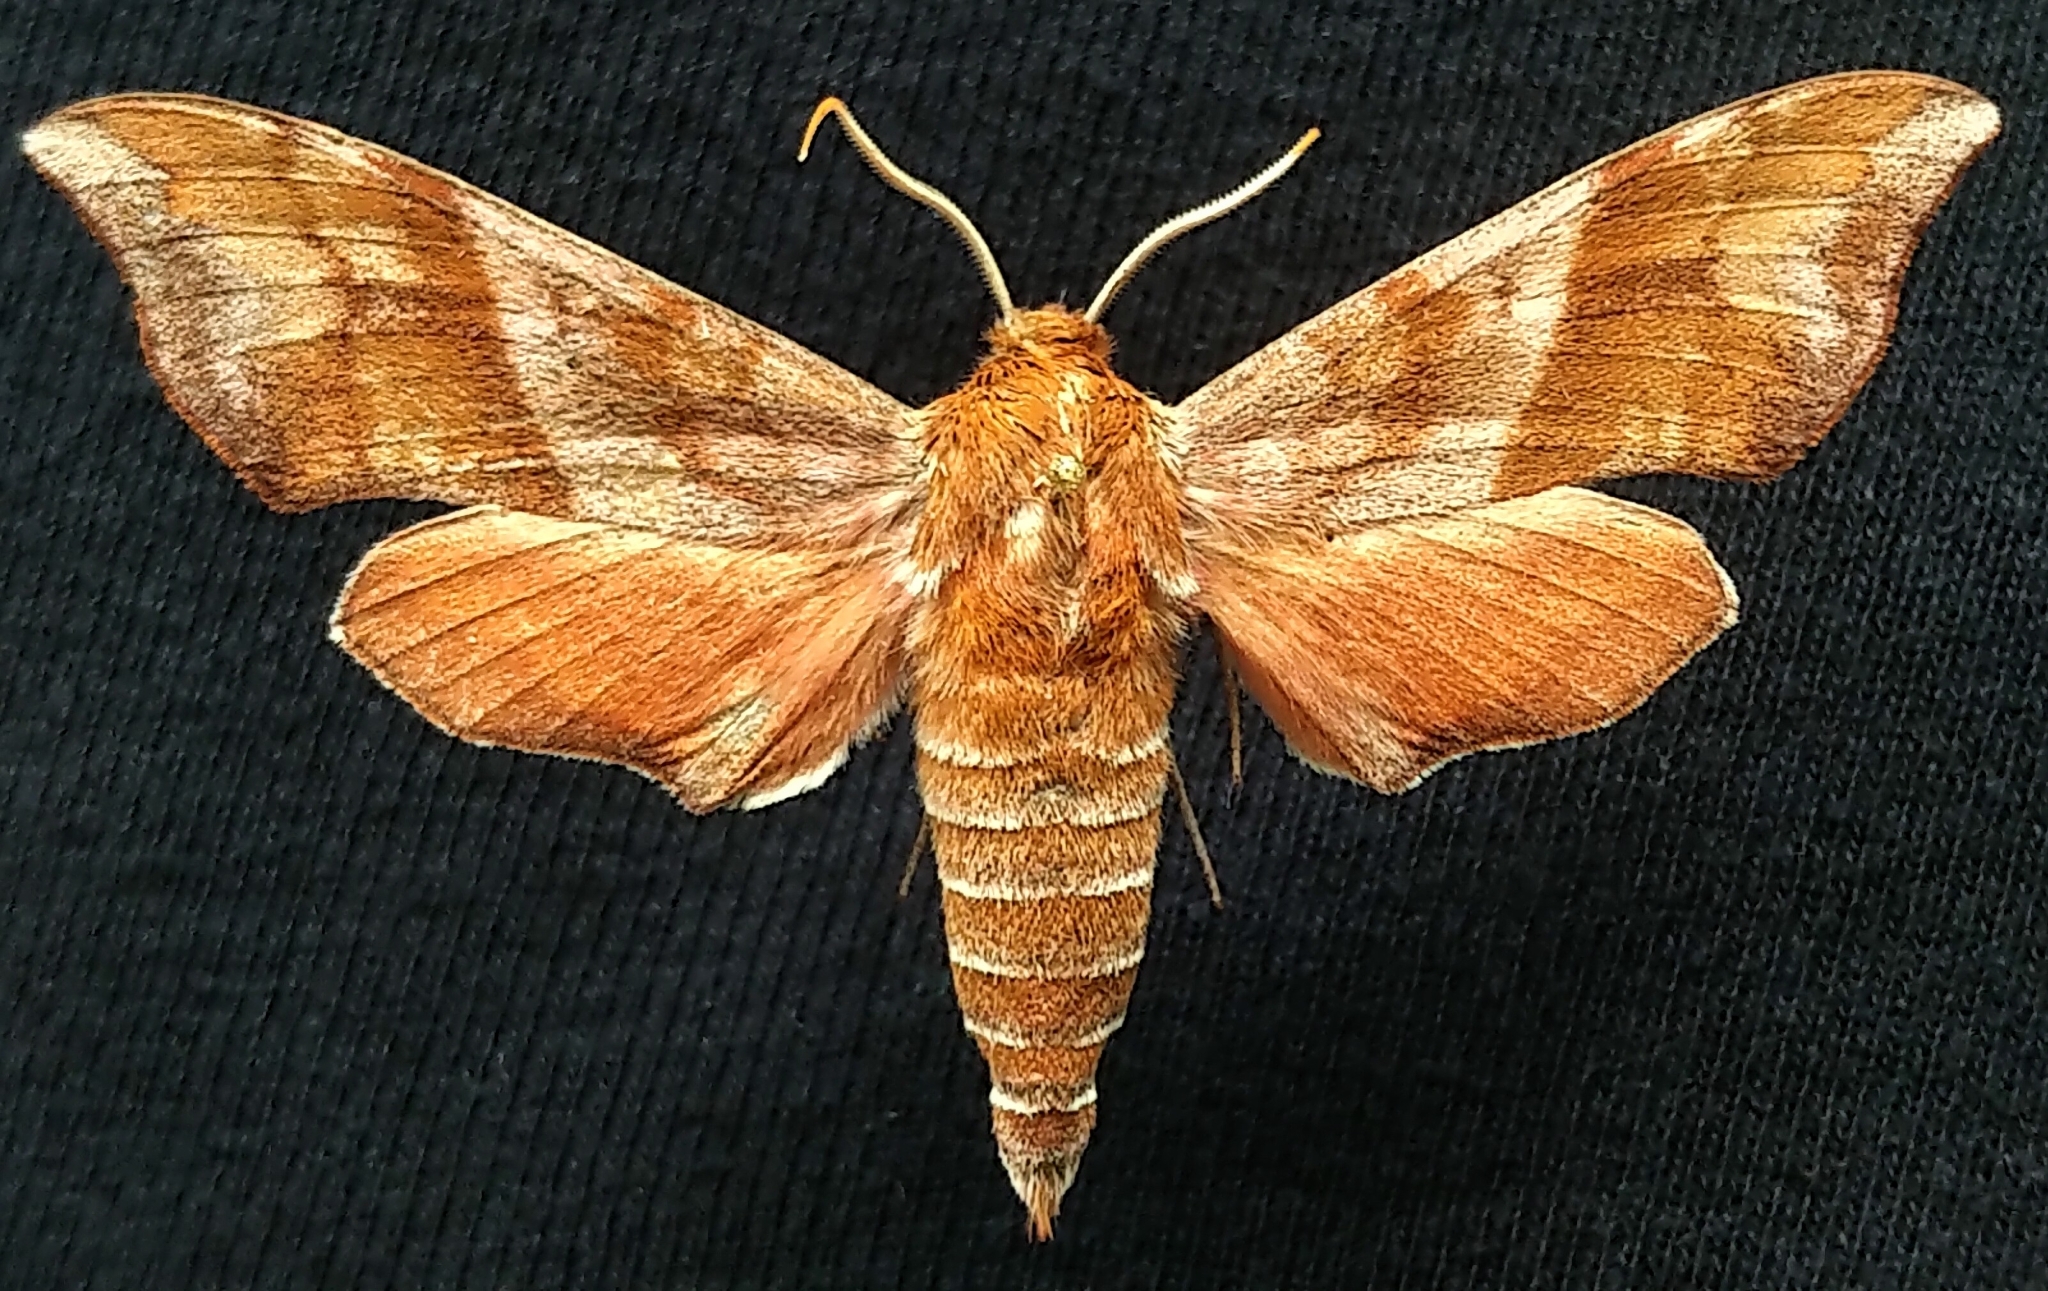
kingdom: Animalia
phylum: Arthropoda
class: Insecta
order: Lepidoptera
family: Sphingidae
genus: Darapsa
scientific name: Darapsa choerilus
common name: Azalea sphinx
